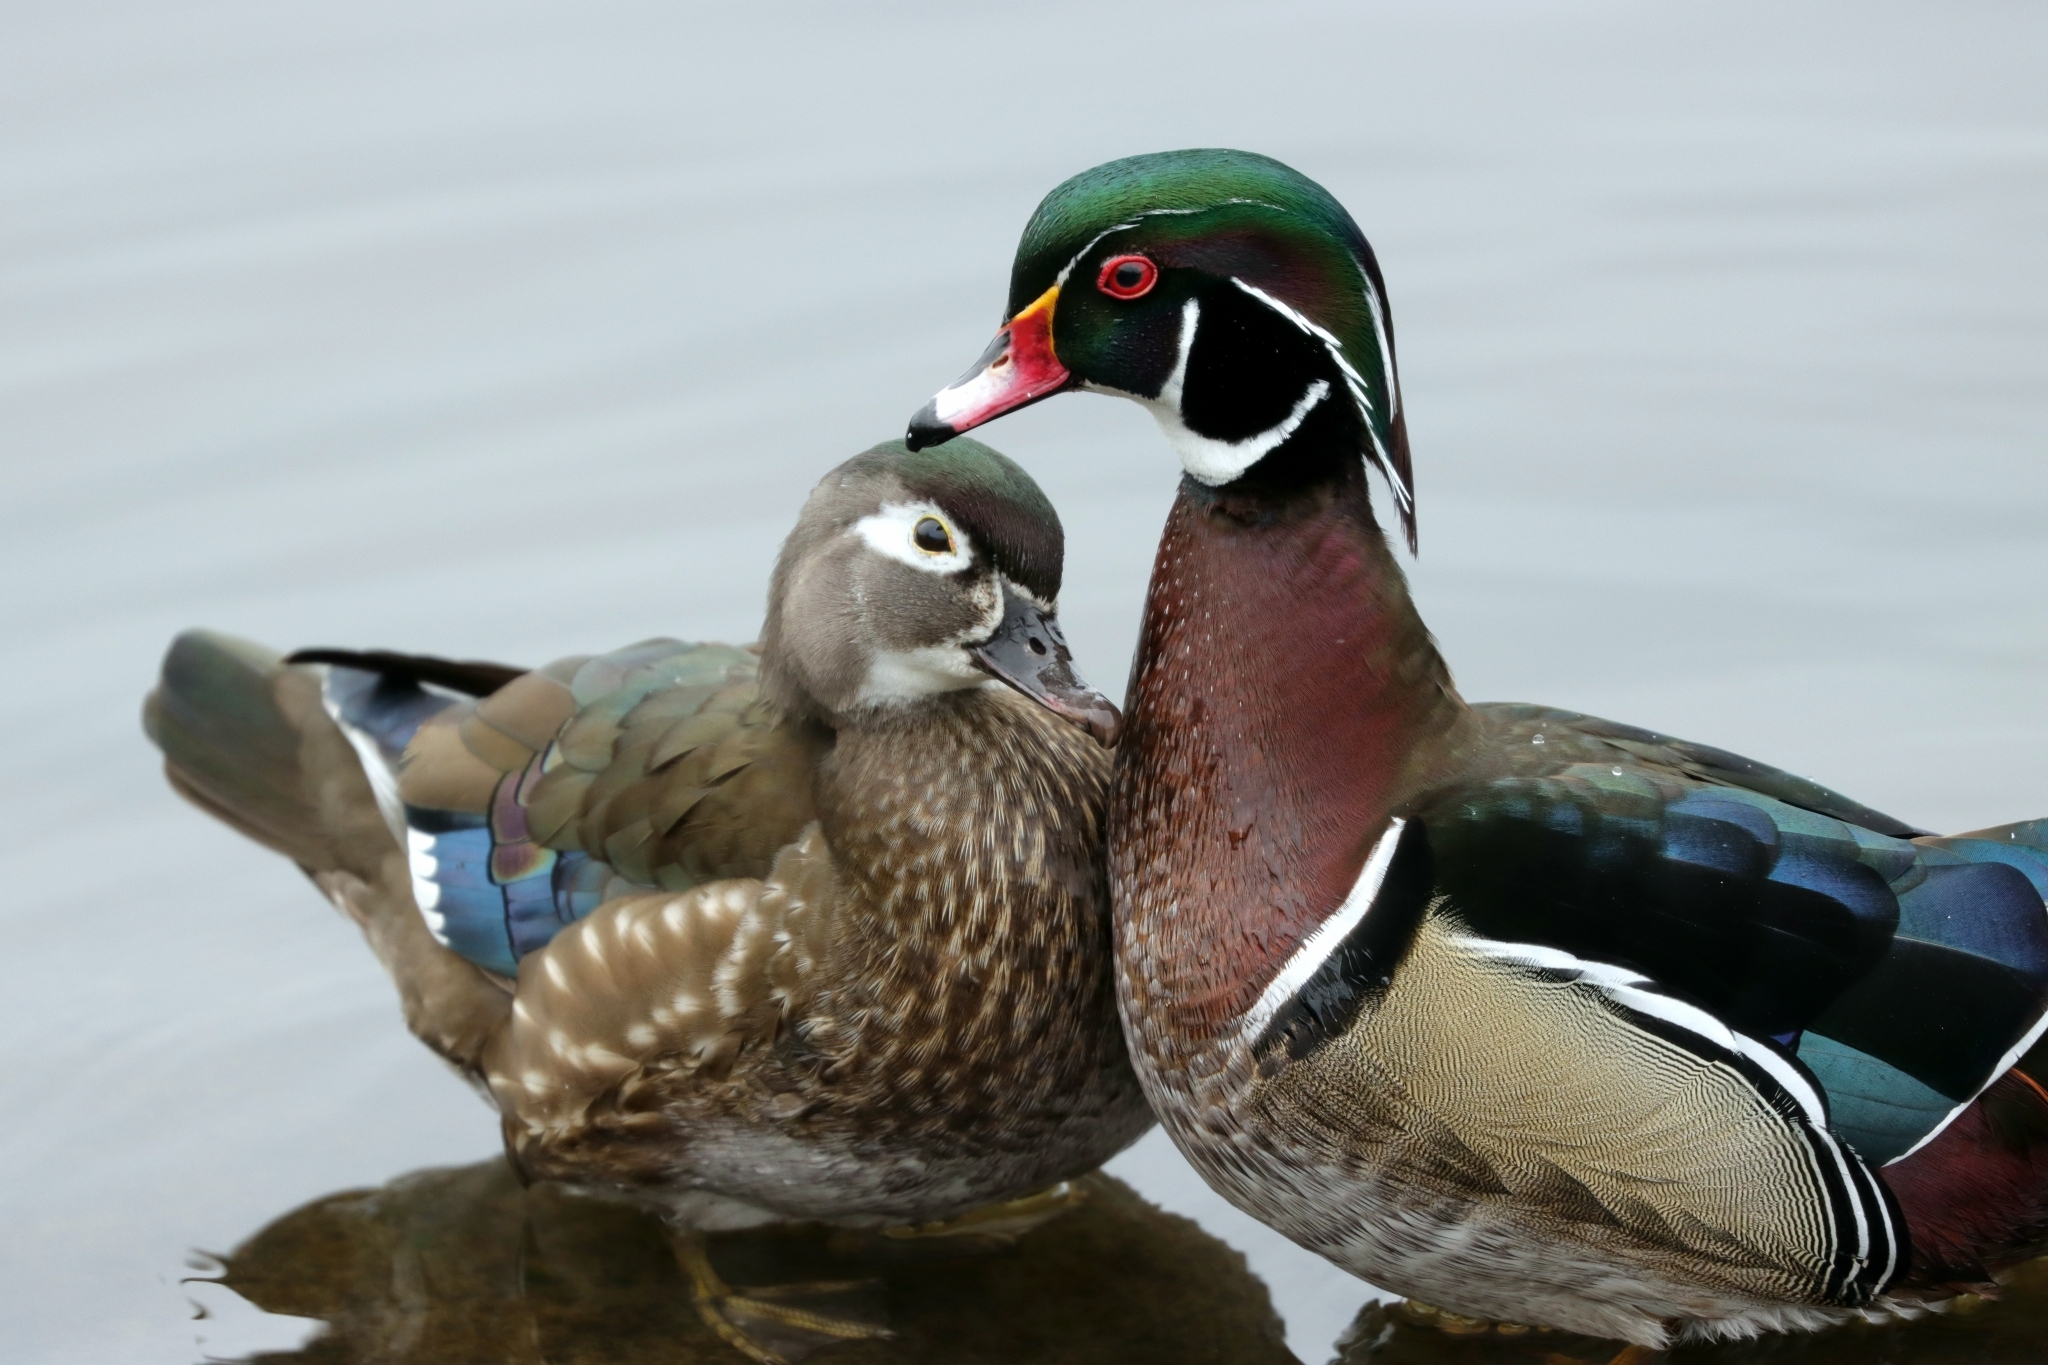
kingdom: Animalia
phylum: Chordata
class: Aves
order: Anseriformes
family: Anatidae
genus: Aix
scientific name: Aix sponsa
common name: Wood duck
